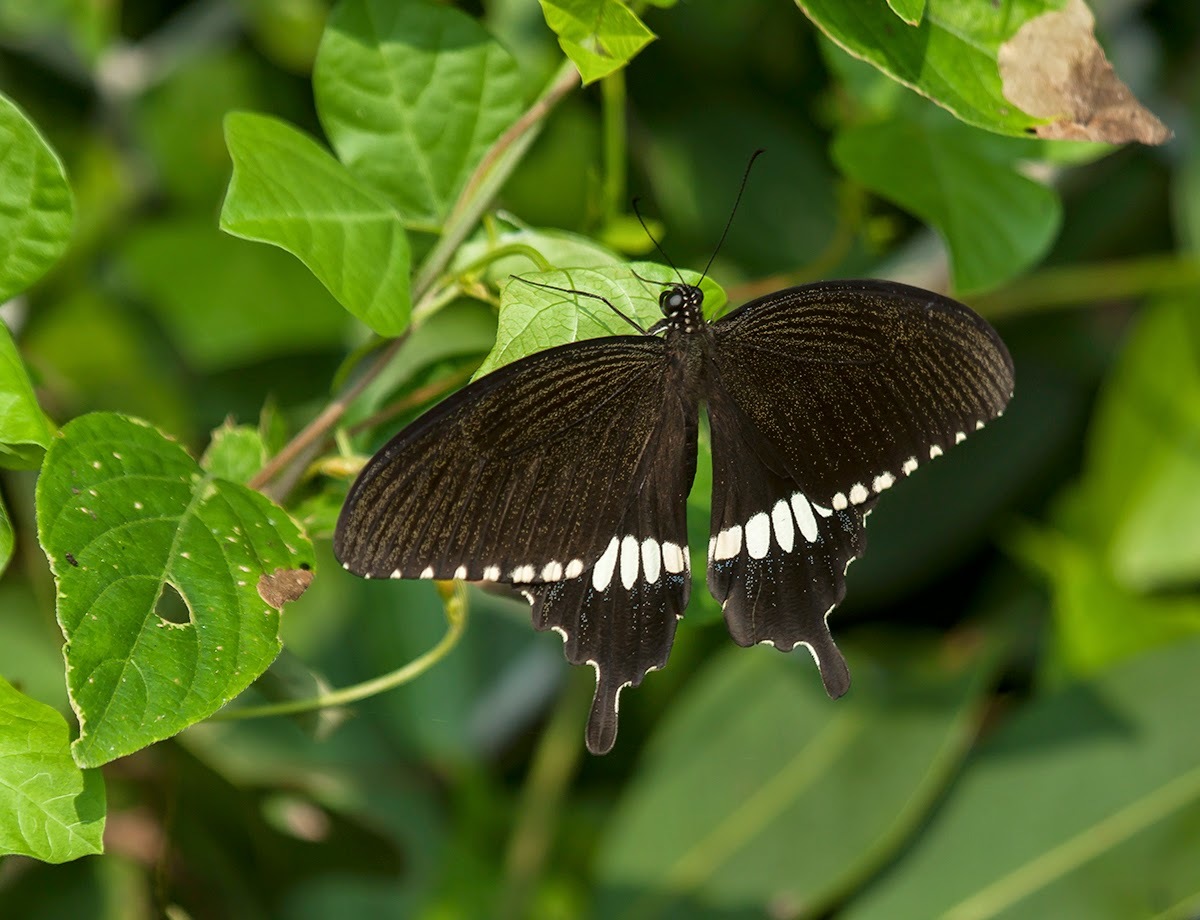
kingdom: Animalia
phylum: Arthropoda
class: Insecta
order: Lepidoptera
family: Papilionidae
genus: Papilio
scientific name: Papilio polytes
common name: Common mormon
